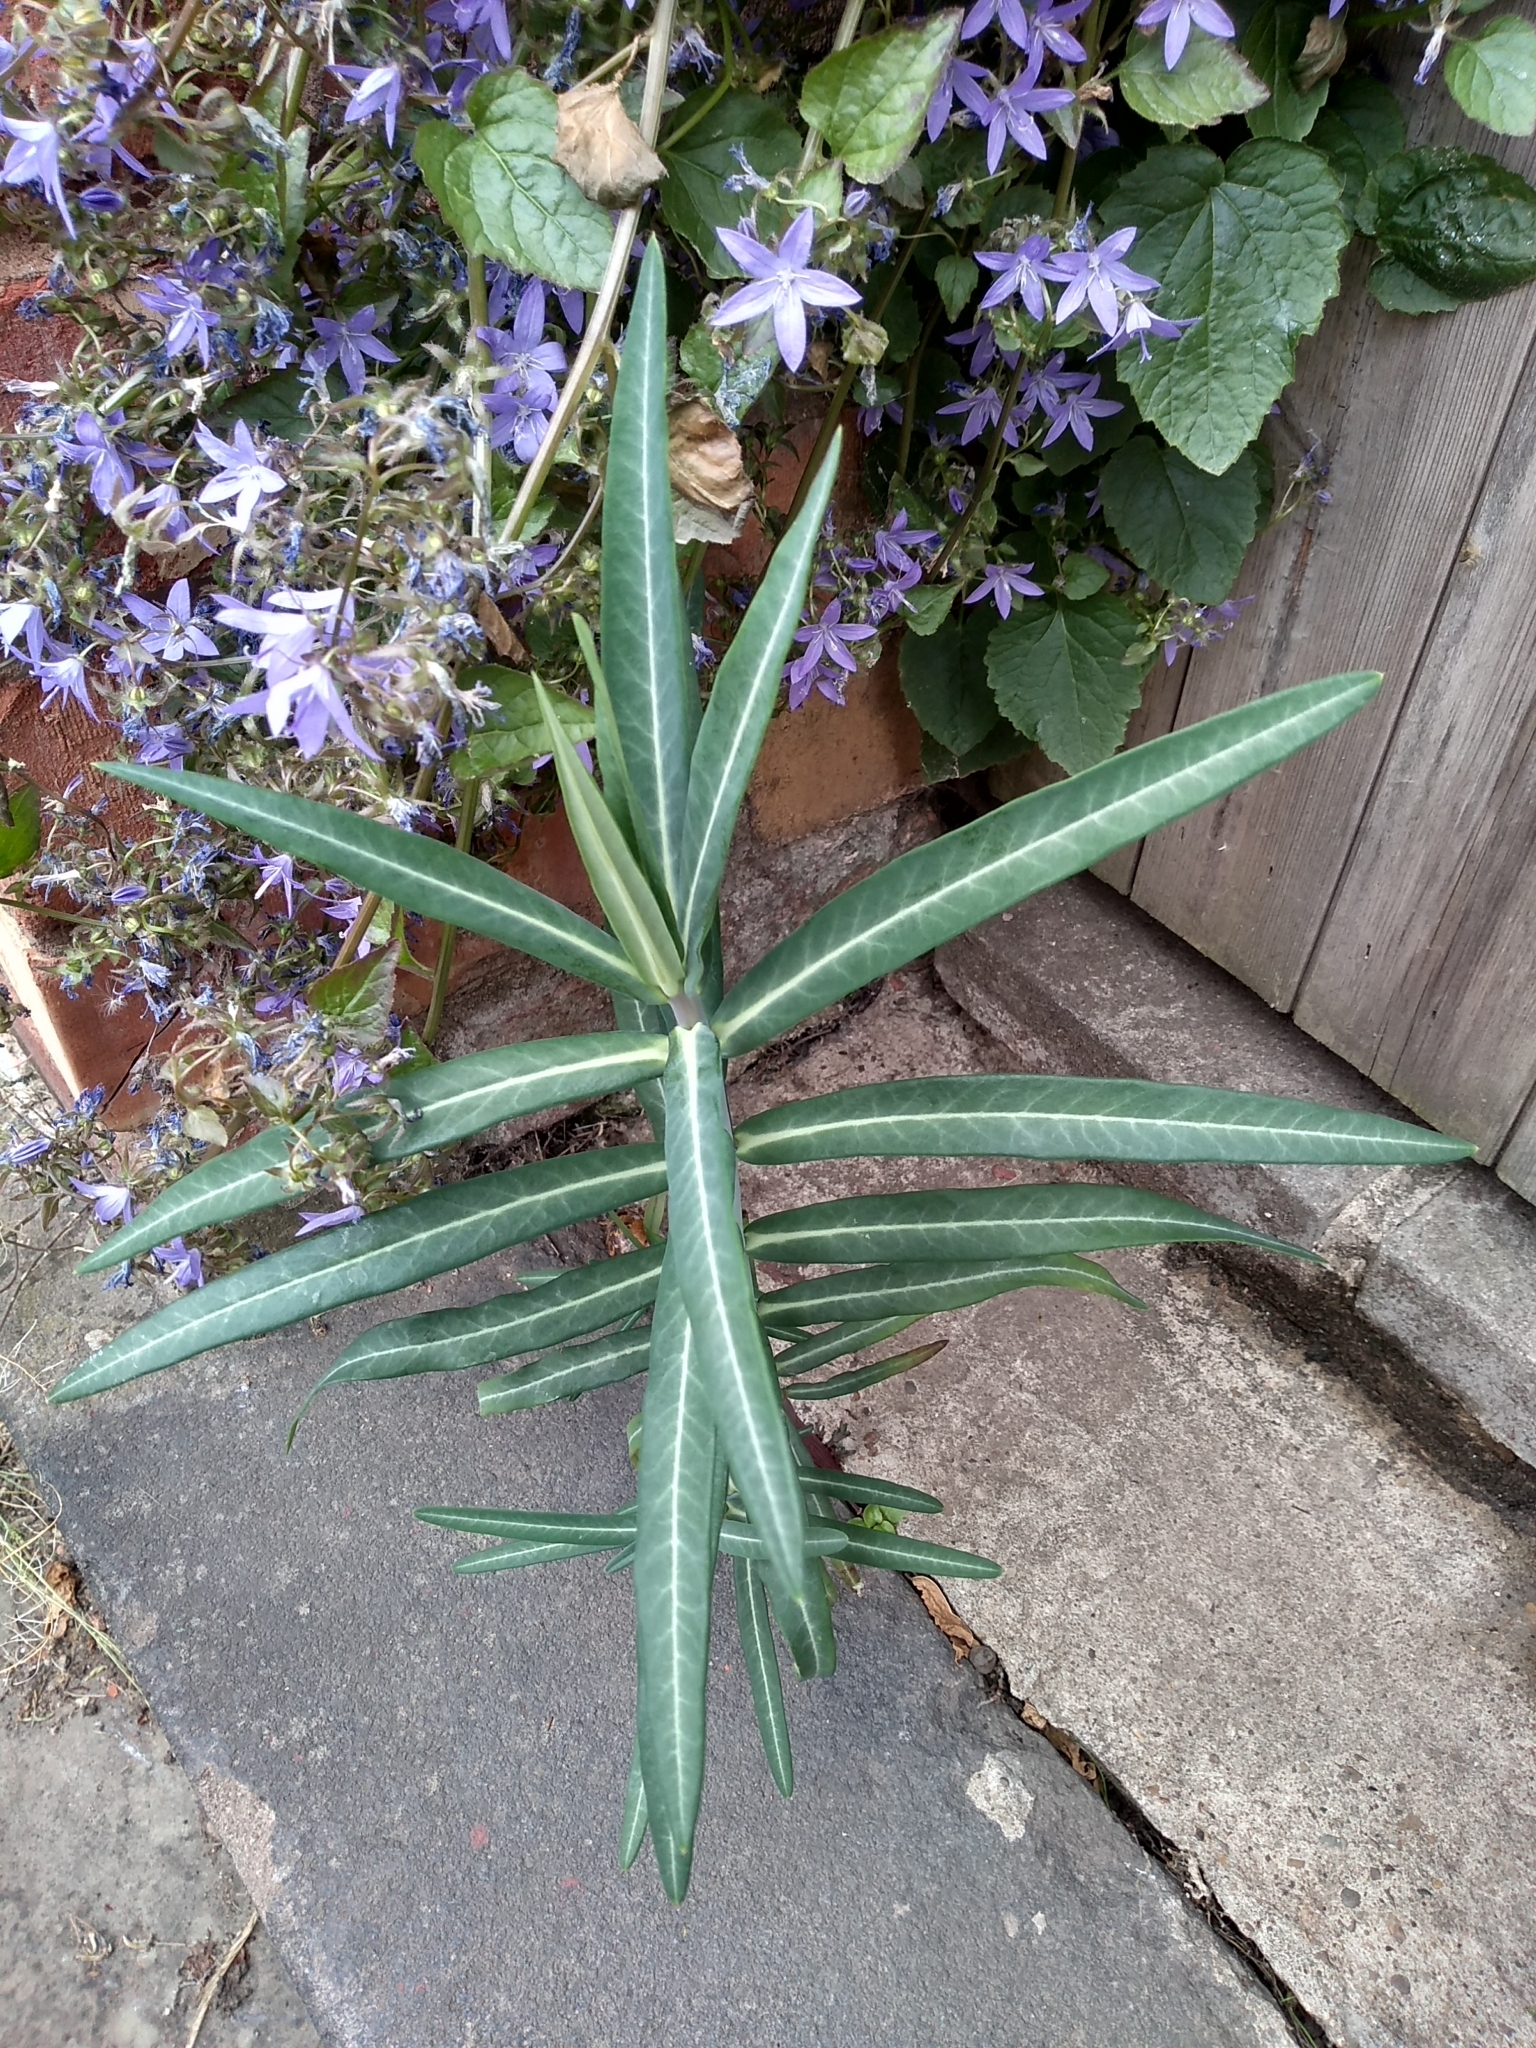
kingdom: Plantae
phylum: Tracheophyta
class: Magnoliopsida
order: Malpighiales
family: Euphorbiaceae
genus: Euphorbia
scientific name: Euphorbia lathyris
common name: Caper spurge
